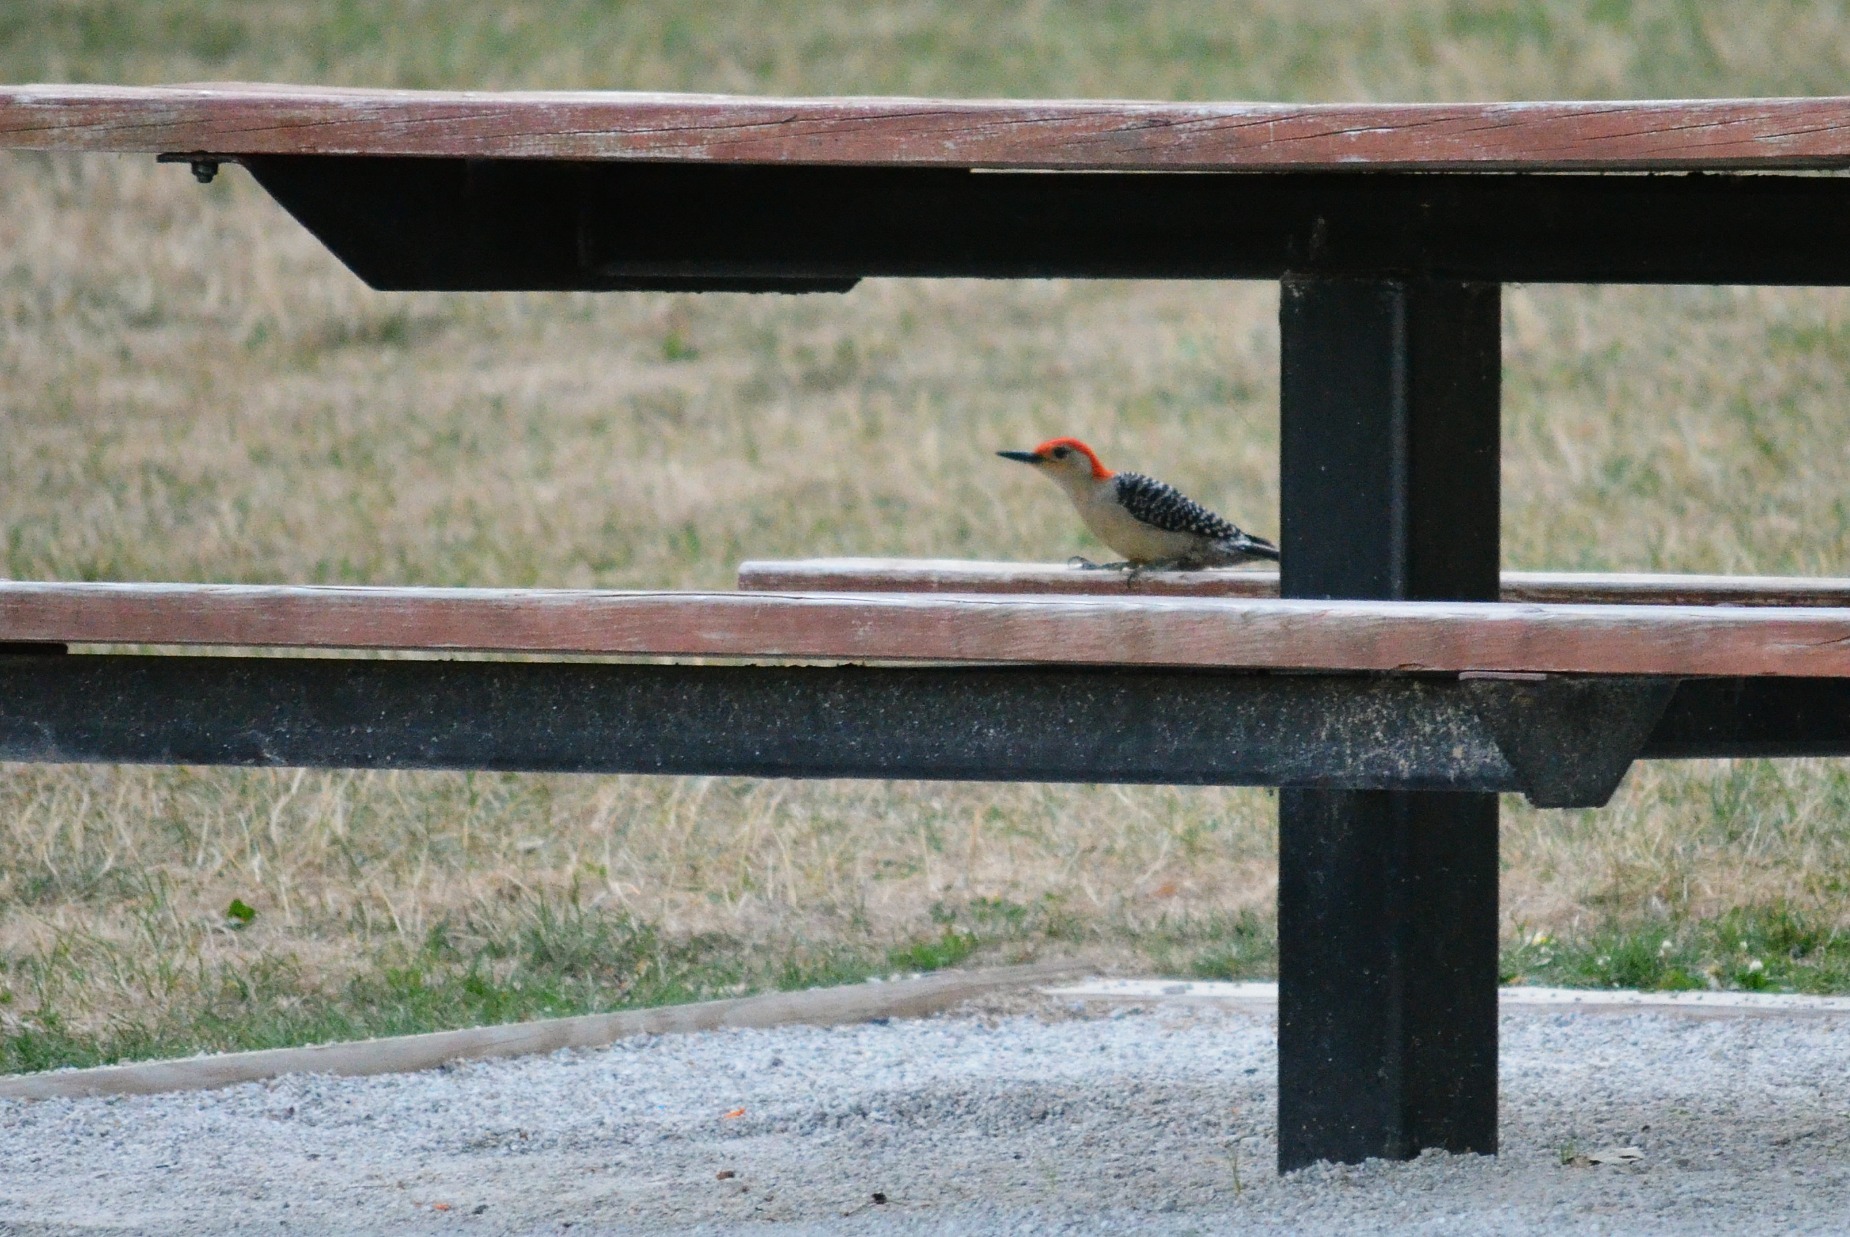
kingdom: Animalia
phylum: Chordata
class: Aves
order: Piciformes
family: Picidae
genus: Melanerpes
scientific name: Melanerpes carolinus
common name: Red-bellied woodpecker
